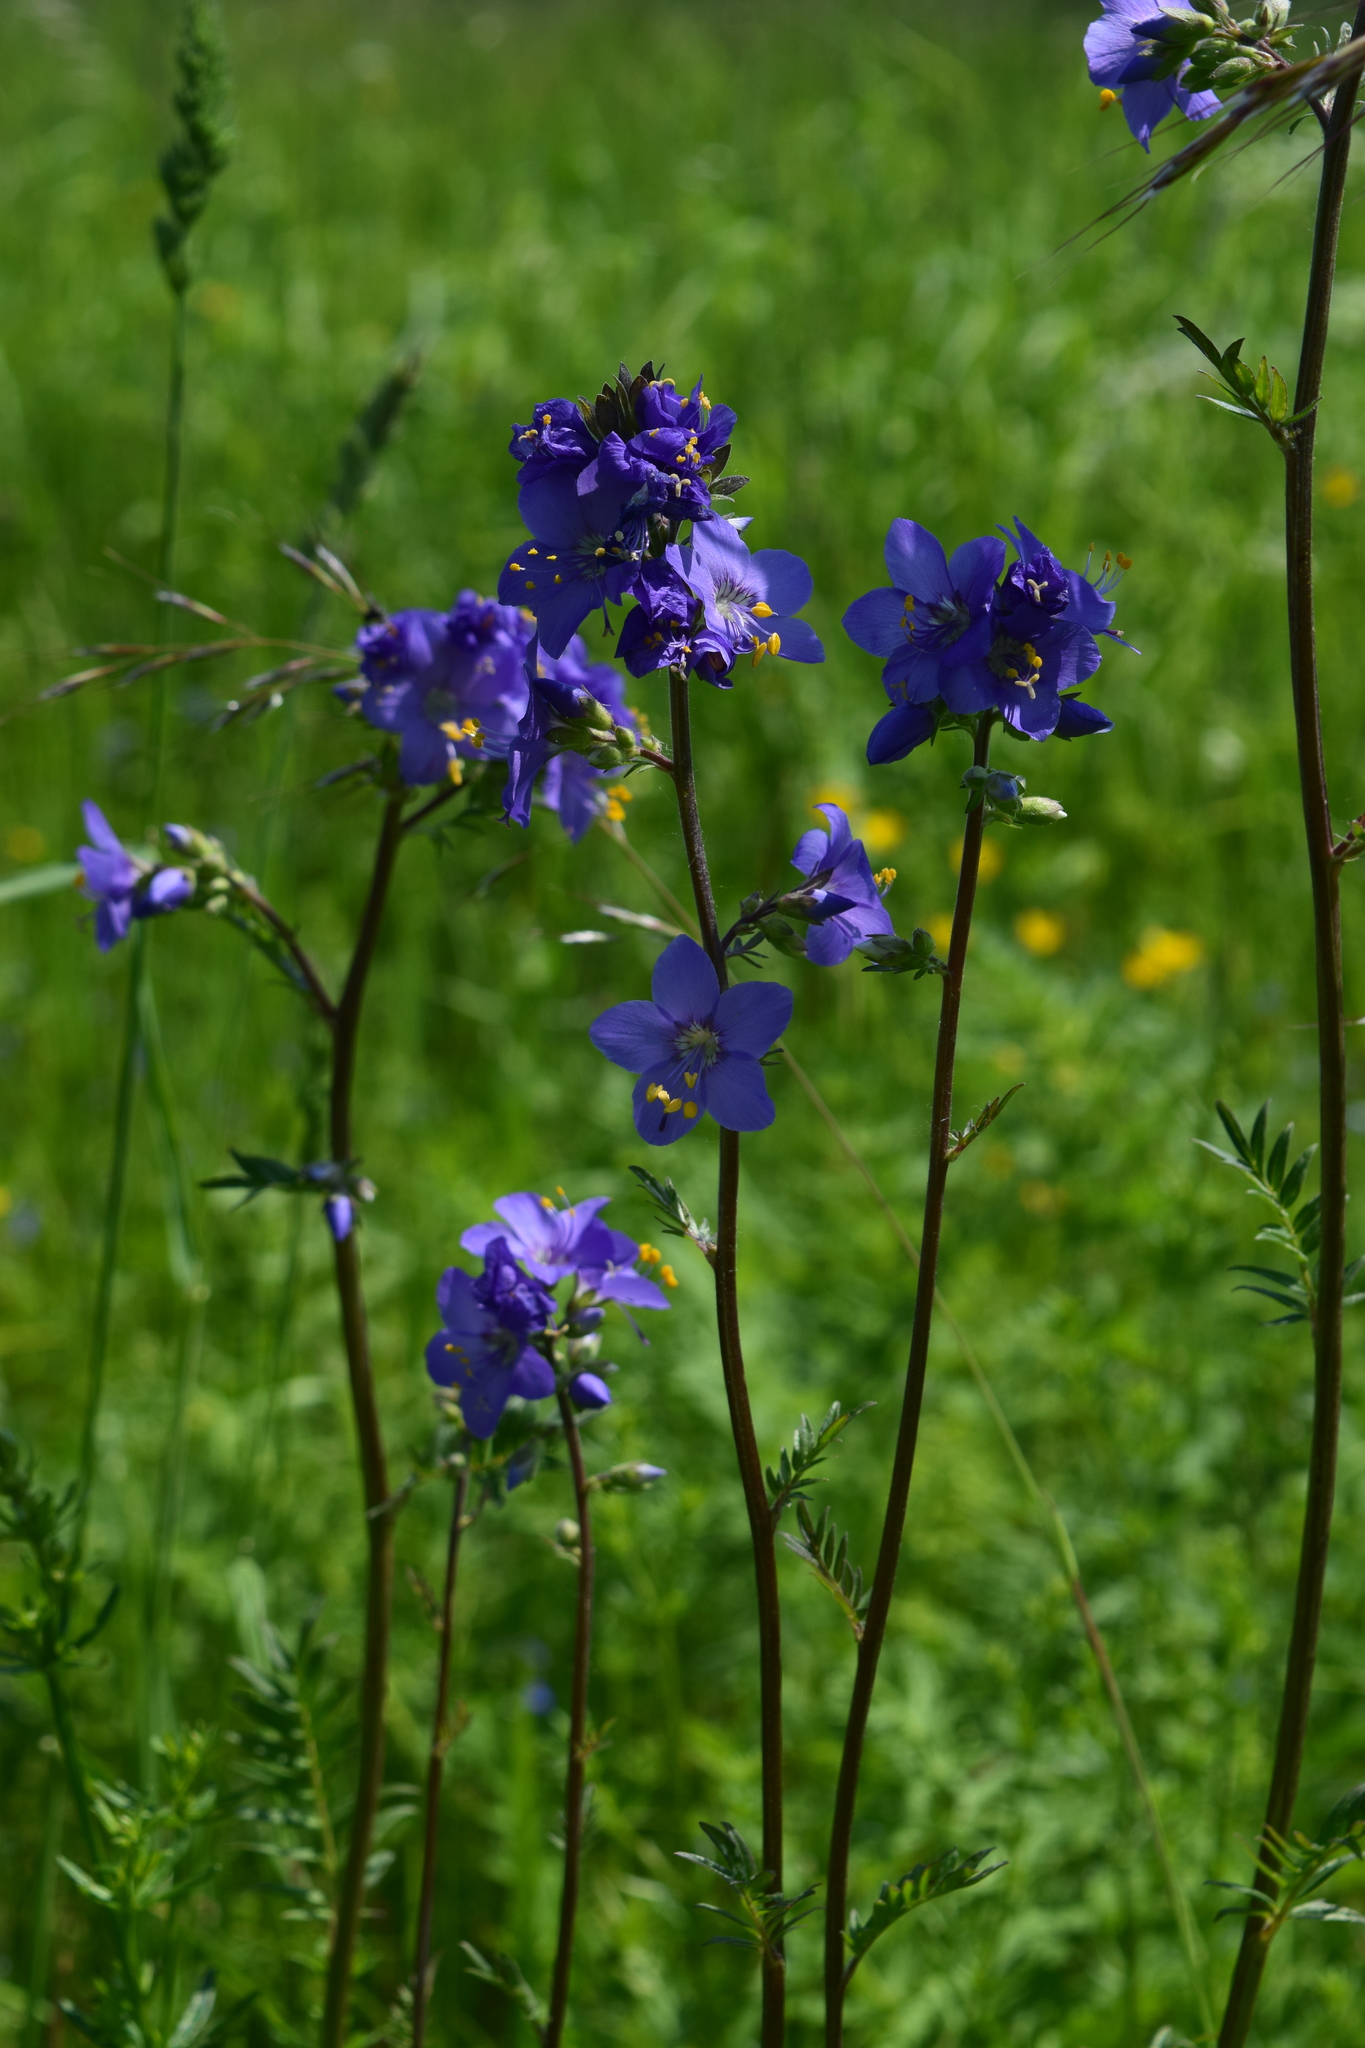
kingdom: Plantae
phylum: Tracheophyta
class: Magnoliopsida
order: Ericales
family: Polemoniaceae
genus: Polemonium
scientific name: Polemonium caeruleum
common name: Jacob's-ladder
